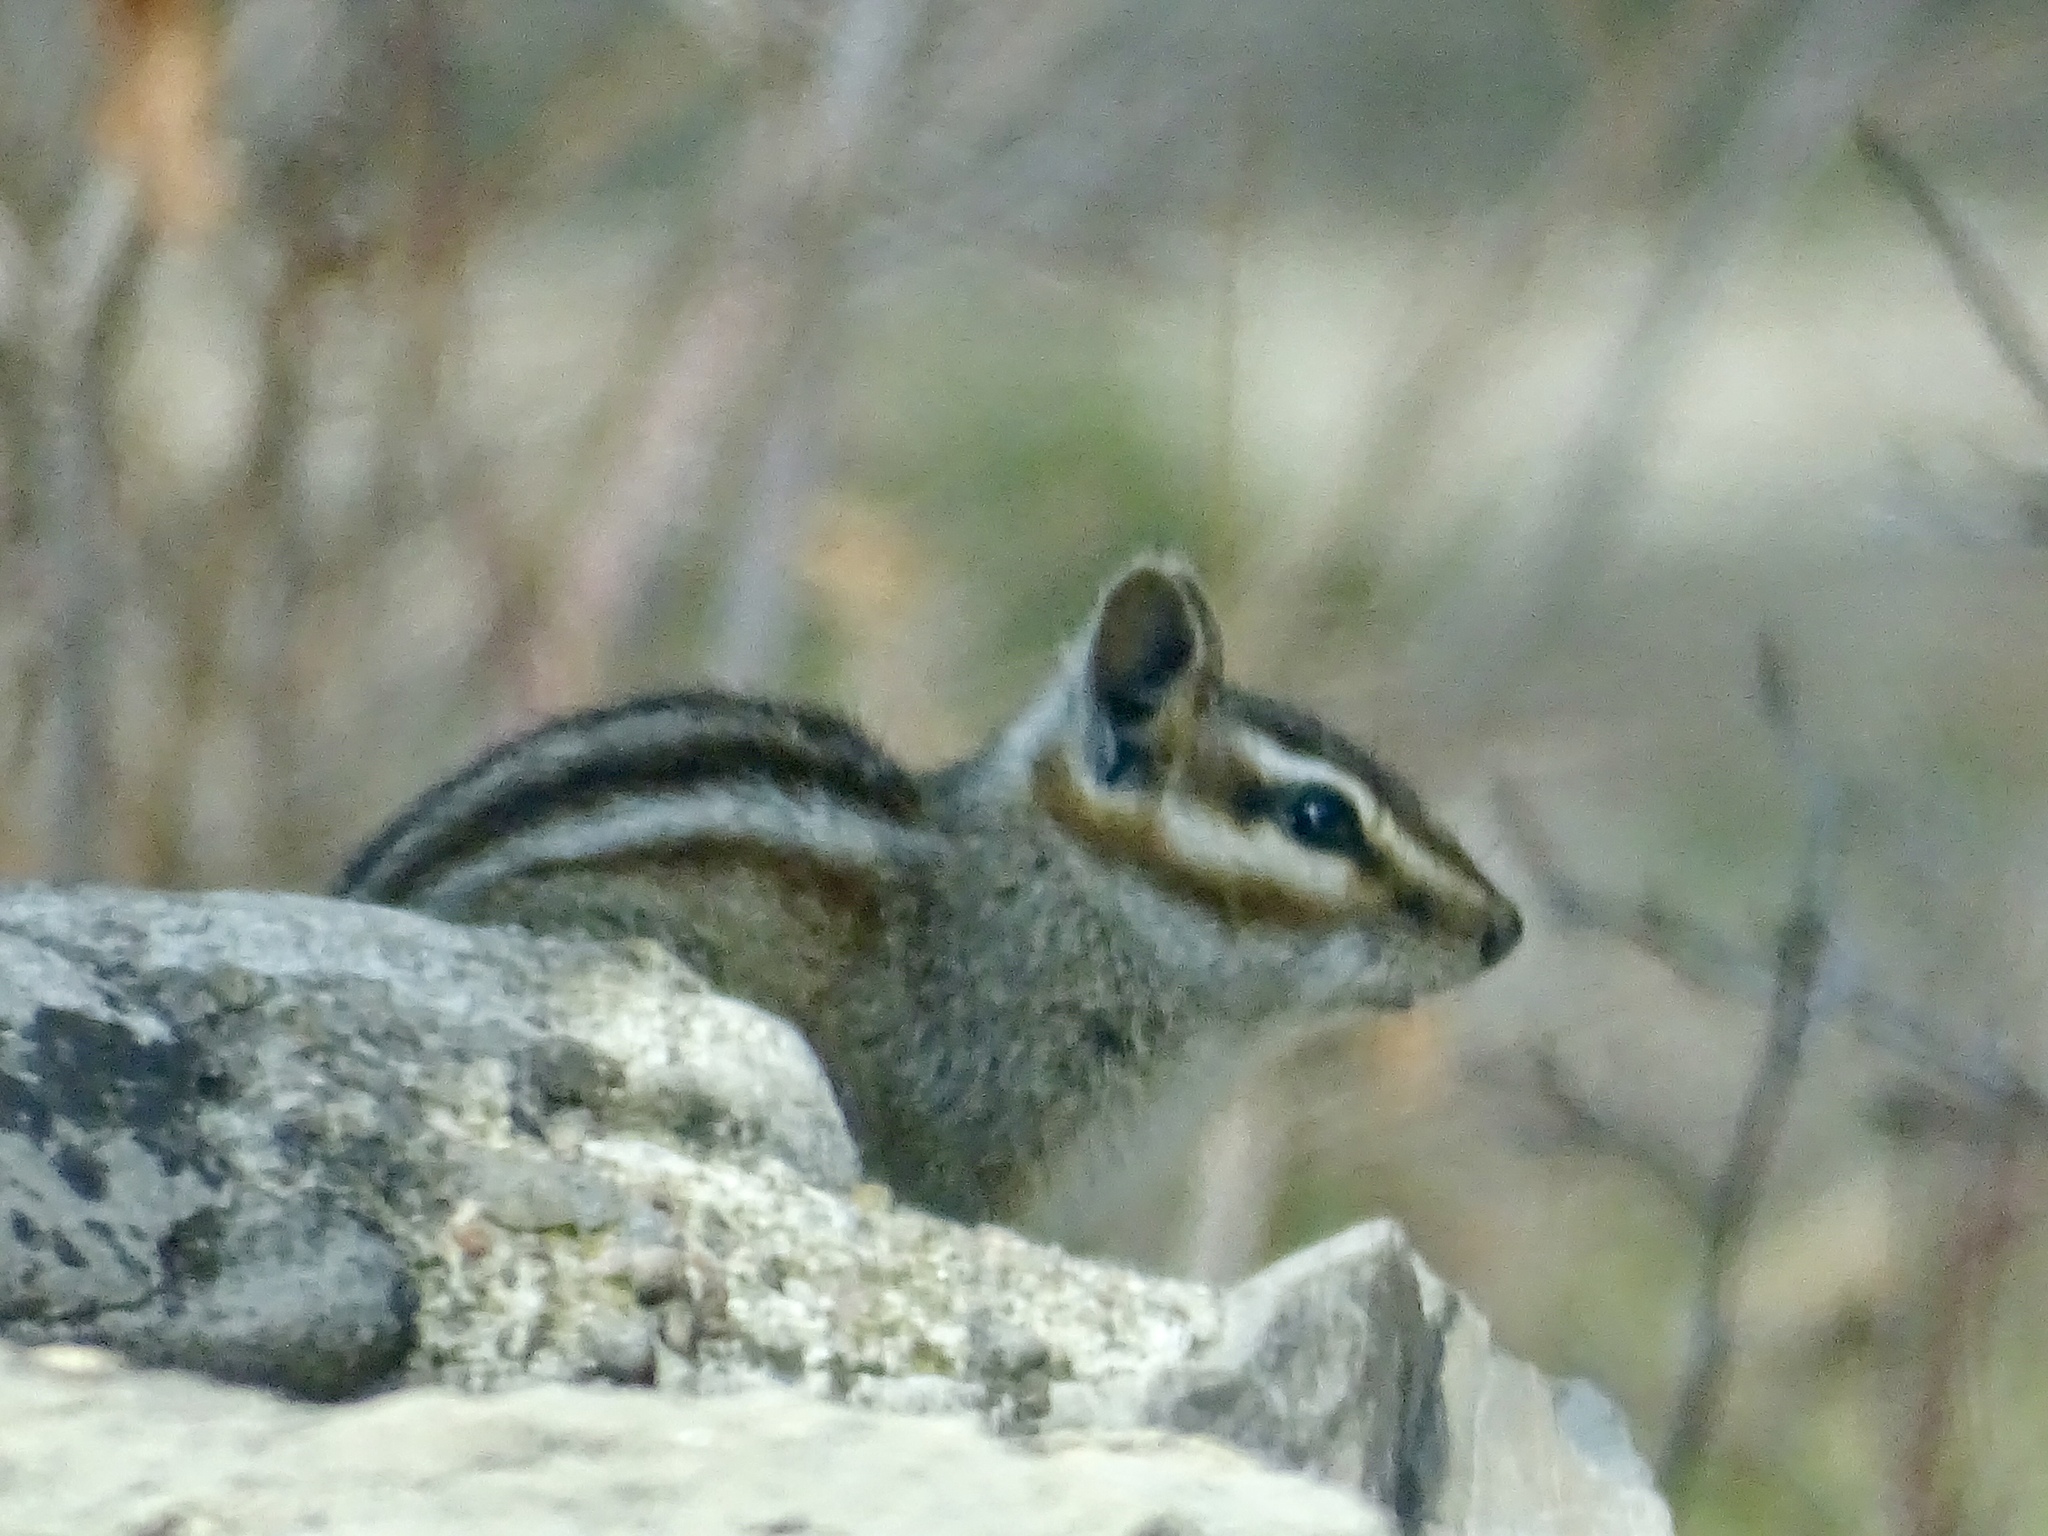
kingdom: Animalia
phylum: Chordata
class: Mammalia
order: Rodentia
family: Sciuridae
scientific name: Sciuridae
